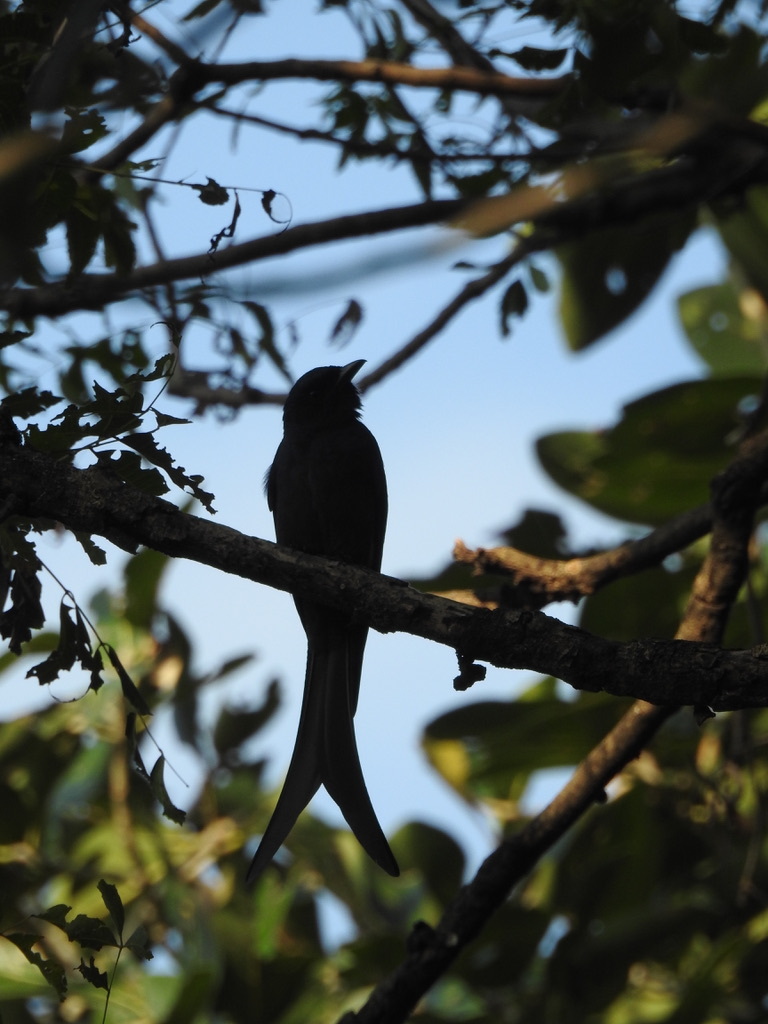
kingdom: Animalia
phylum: Chordata
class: Aves
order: Passeriformes
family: Dicruridae
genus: Dicrurus
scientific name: Dicrurus leucophaeus
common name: Ashy drongo
